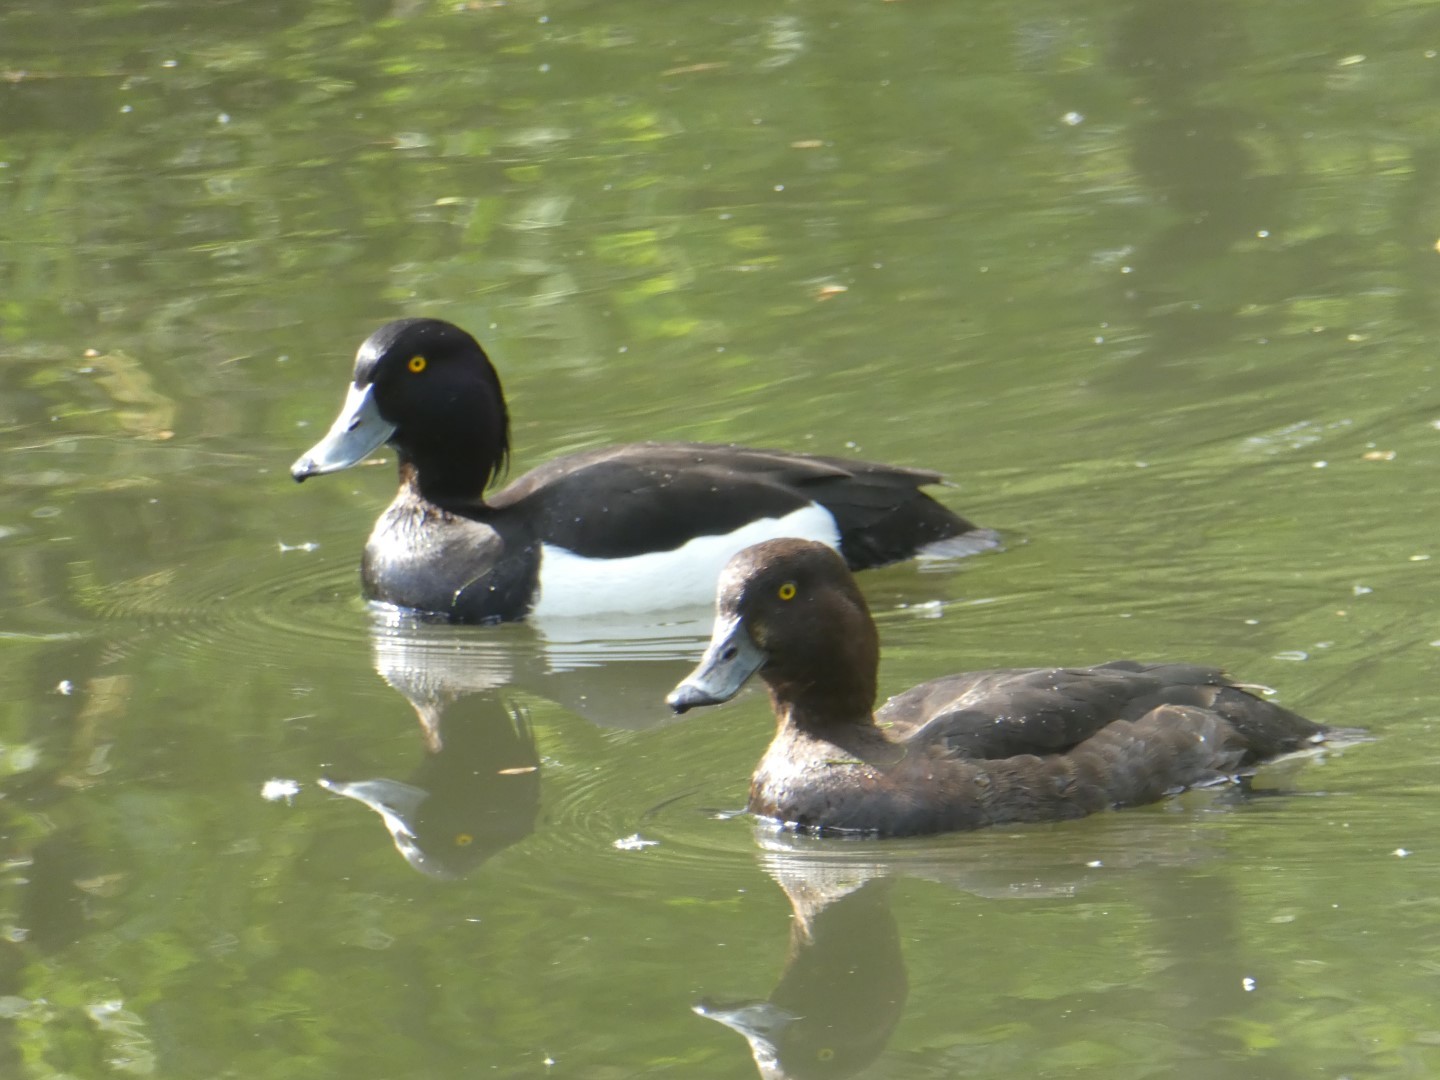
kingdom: Animalia
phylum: Chordata
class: Aves
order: Anseriformes
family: Anatidae
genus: Aythya
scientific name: Aythya fuligula
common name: Tufted duck
